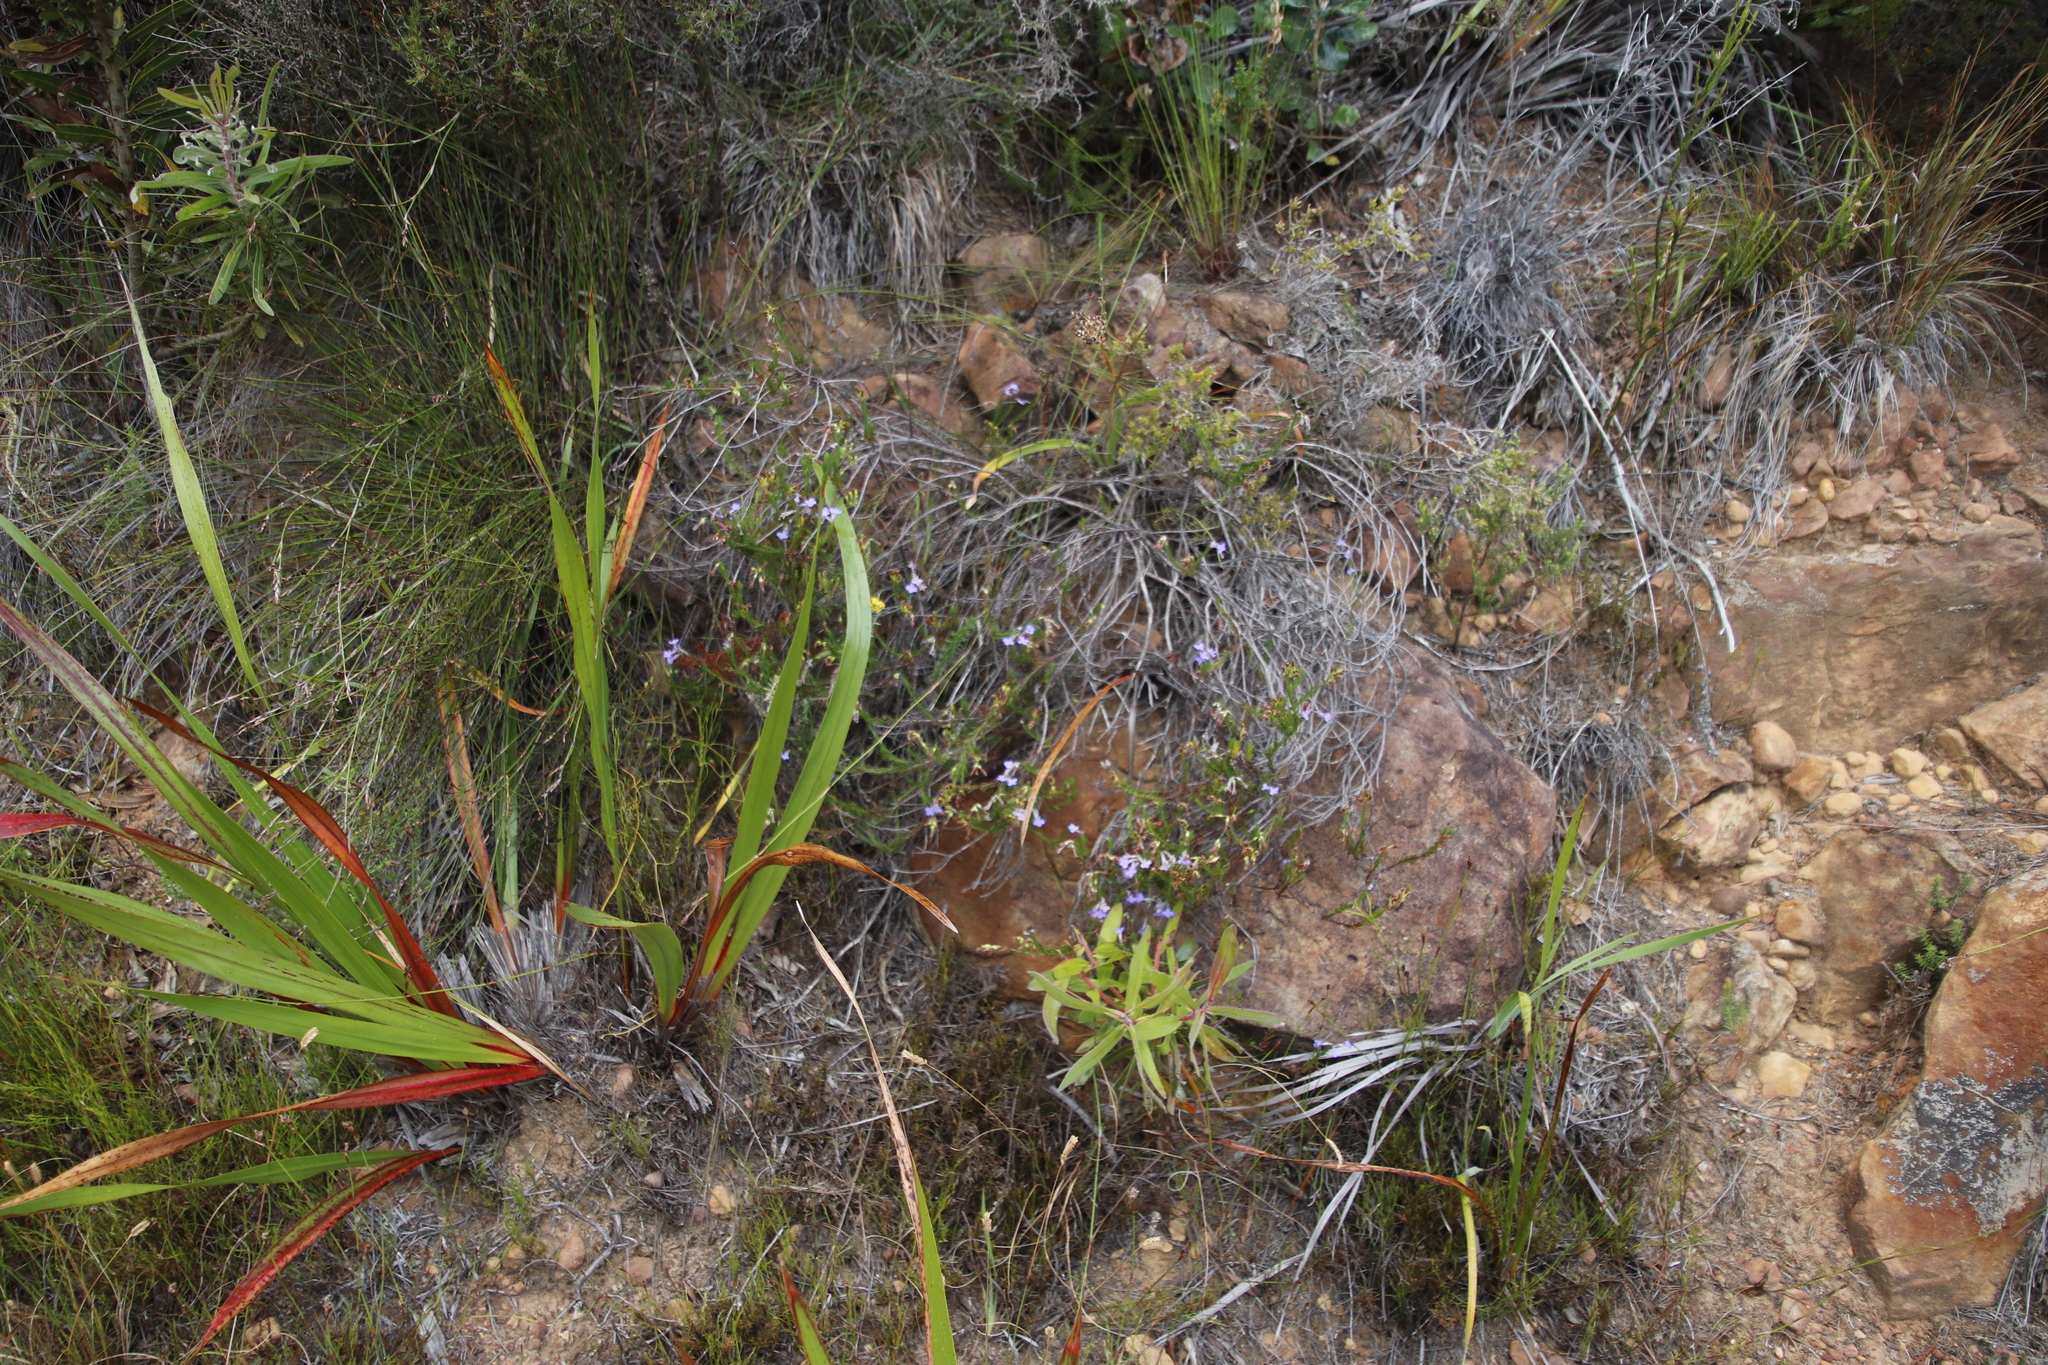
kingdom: Plantae
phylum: Tracheophyta
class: Magnoliopsida
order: Asterales
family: Campanulaceae
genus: Lobelia
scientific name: Lobelia pinifolia
